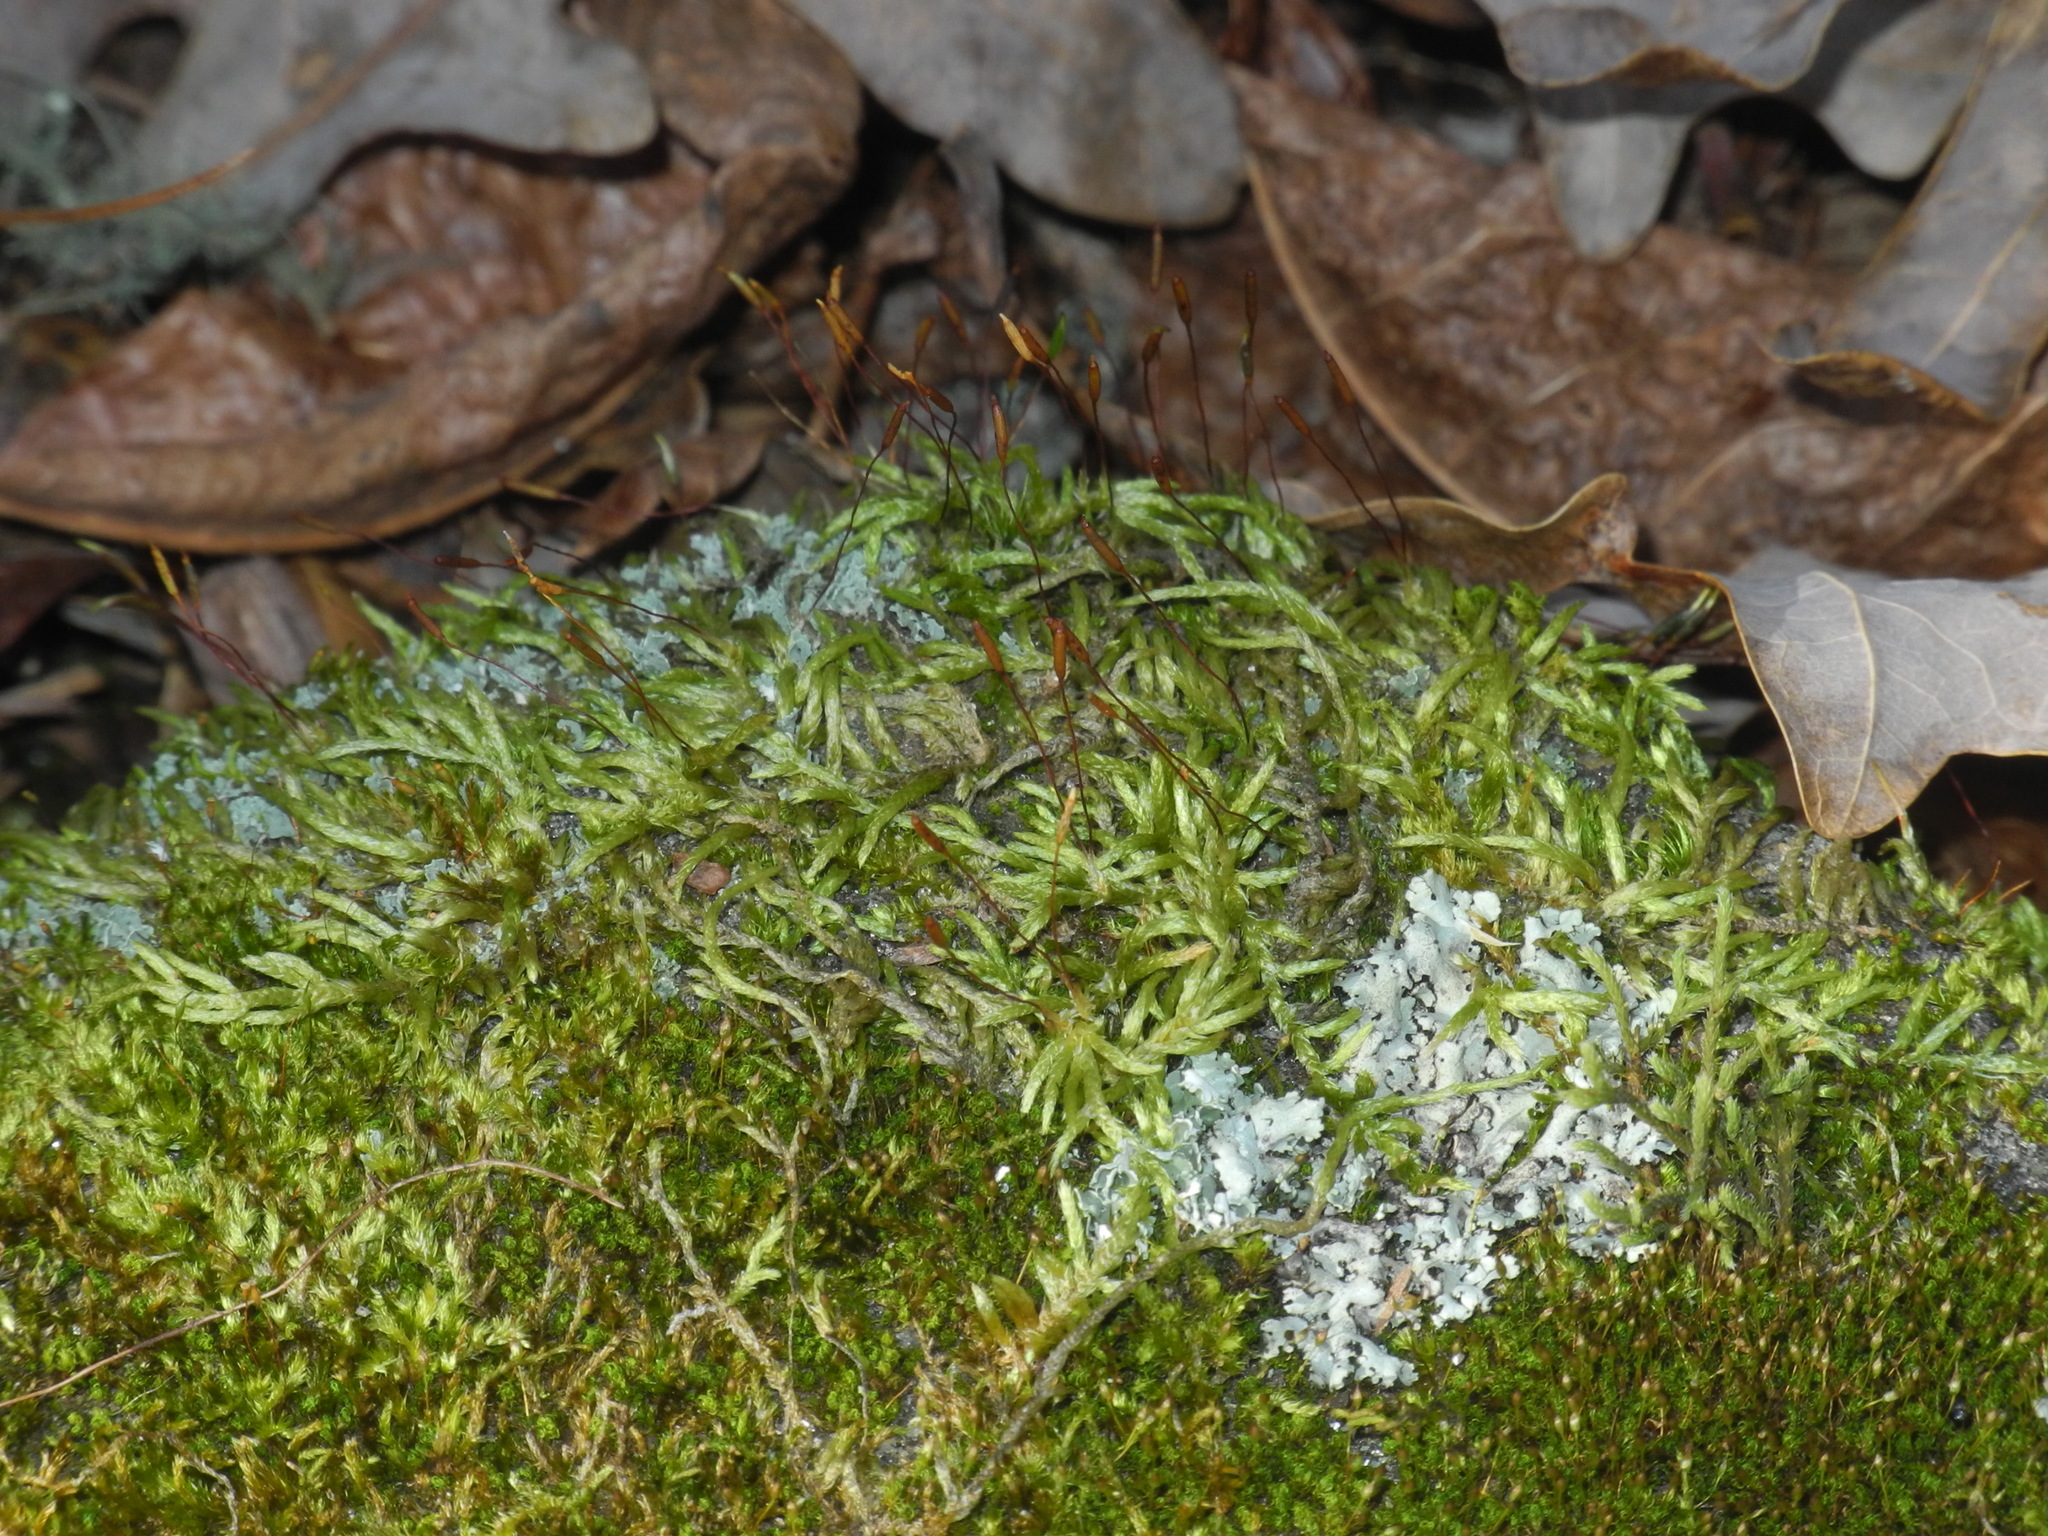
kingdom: Plantae
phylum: Bryophyta
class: Bryopsida
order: Hypnales
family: Pylaisiadelphaceae
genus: Platygyrium
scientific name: Platygyrium repens
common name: Flat-brocade moss
